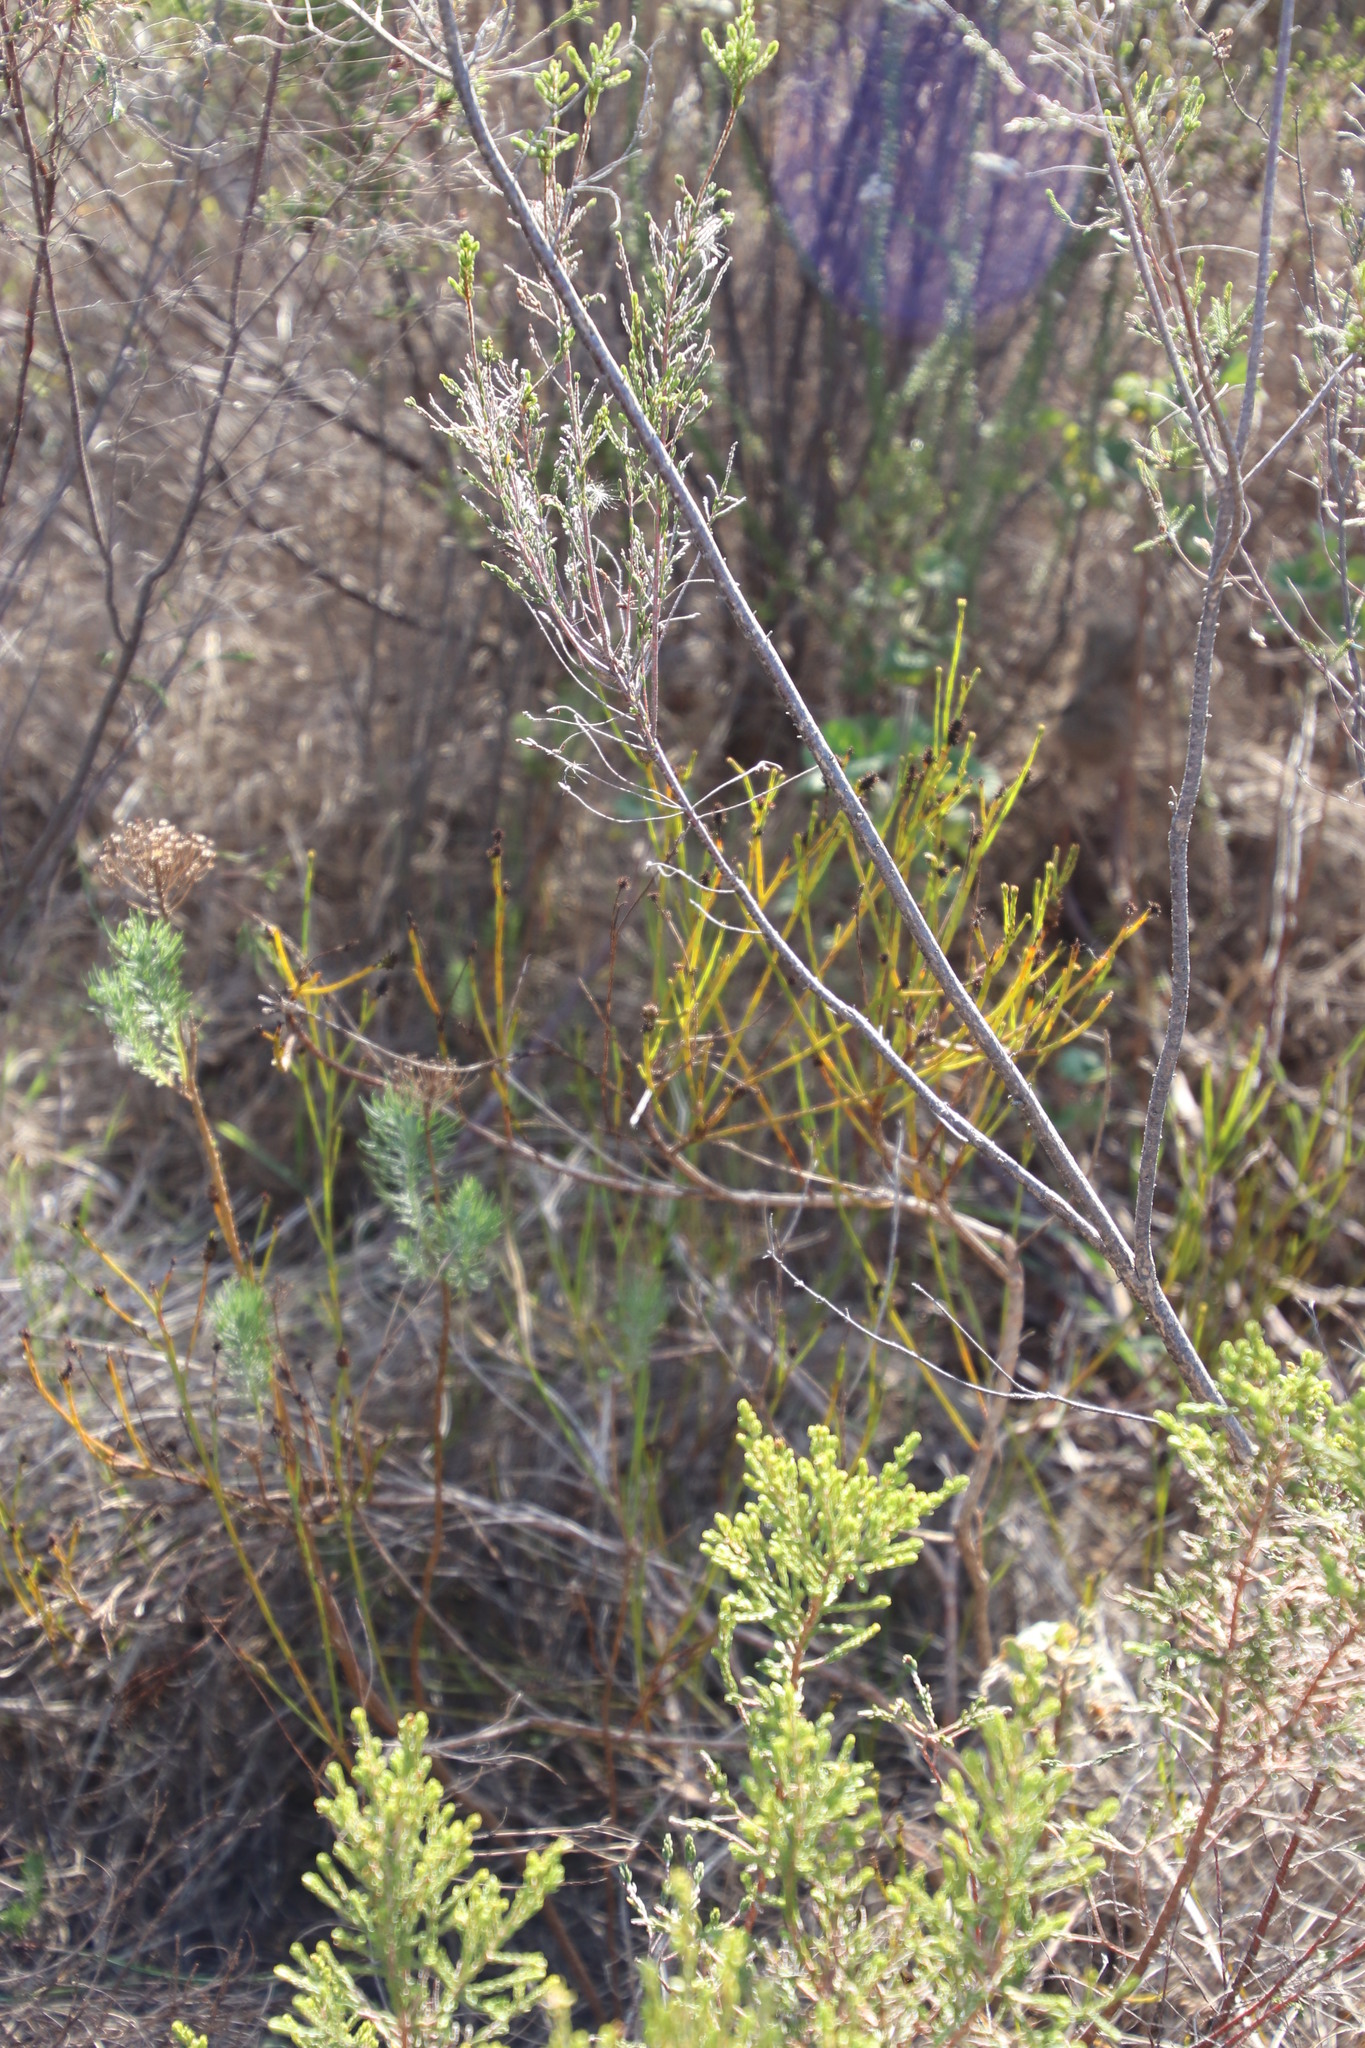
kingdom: Plantae
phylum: Tracheophyta
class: Magnoliopsida
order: Santalales
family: Thesiaceae
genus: Thesium
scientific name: Thesium virgatum
